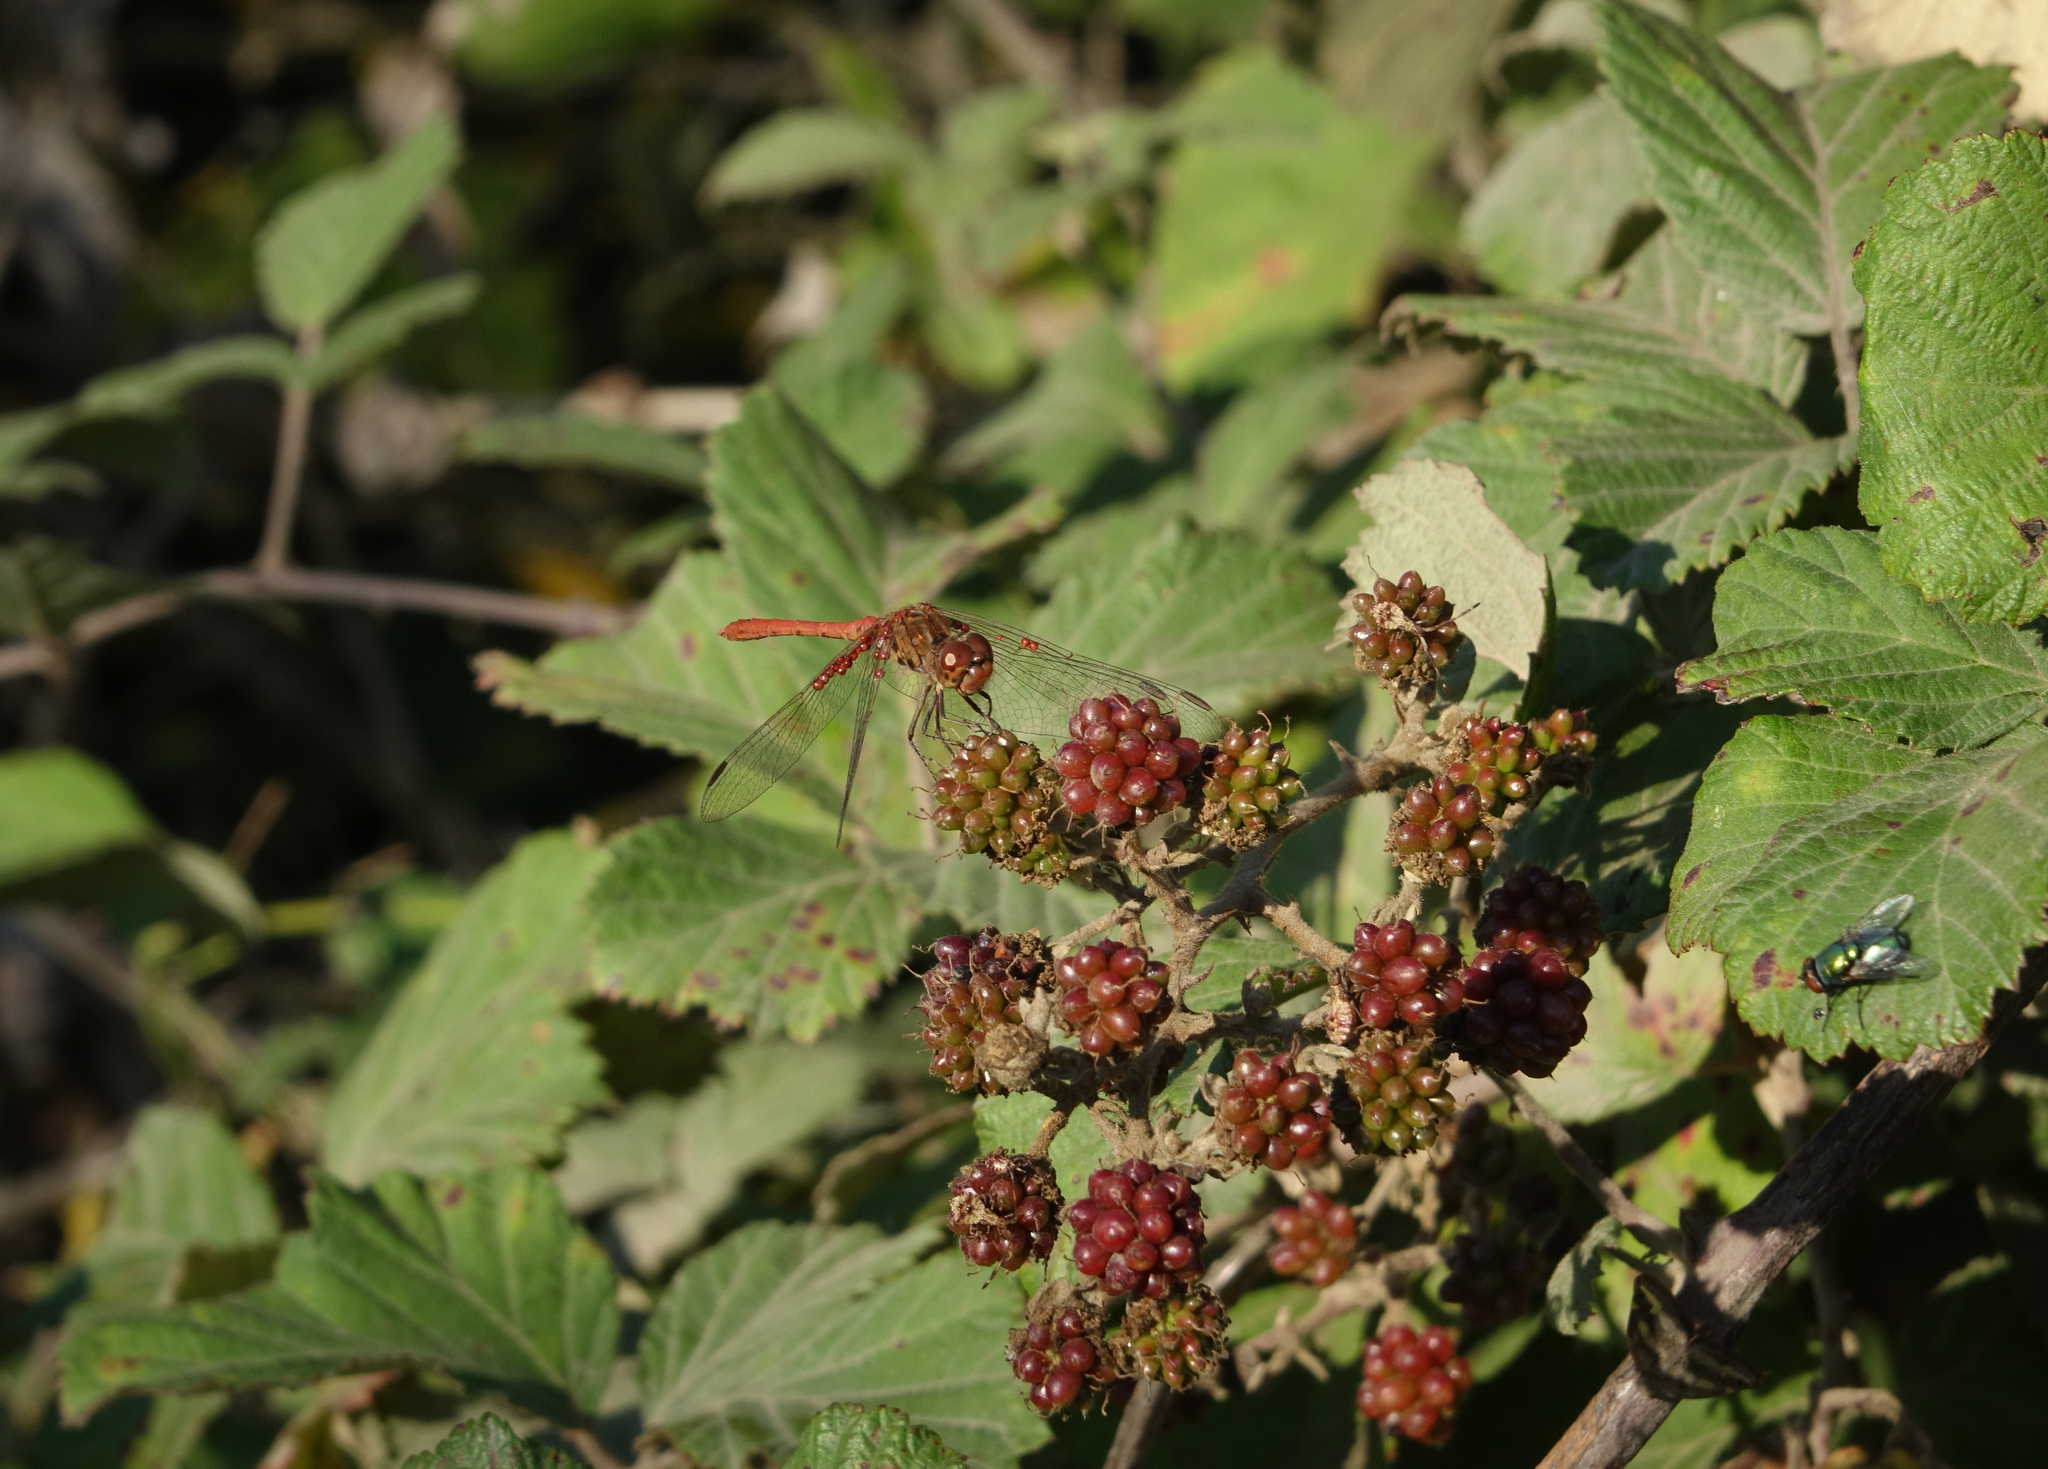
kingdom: Animalia
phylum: Arthropoda
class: Insecta
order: Odonata
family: Libellulidae
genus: Sympetrum
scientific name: Sympetrum meridionale
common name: Southern darter
